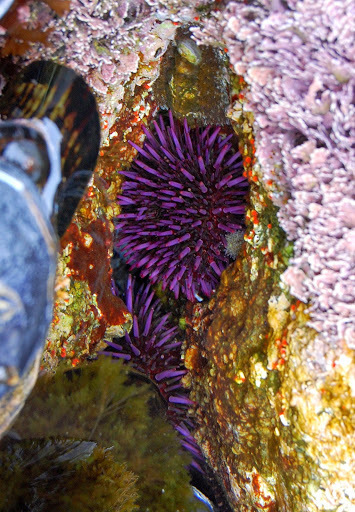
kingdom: Animalia
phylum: Echinodermata
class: Echinoidea
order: Camarodonta
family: Strongylocentrotidae
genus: Strongylocentrotus
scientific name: Strongylocentrotus purpuratus
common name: Purple sea urchin
